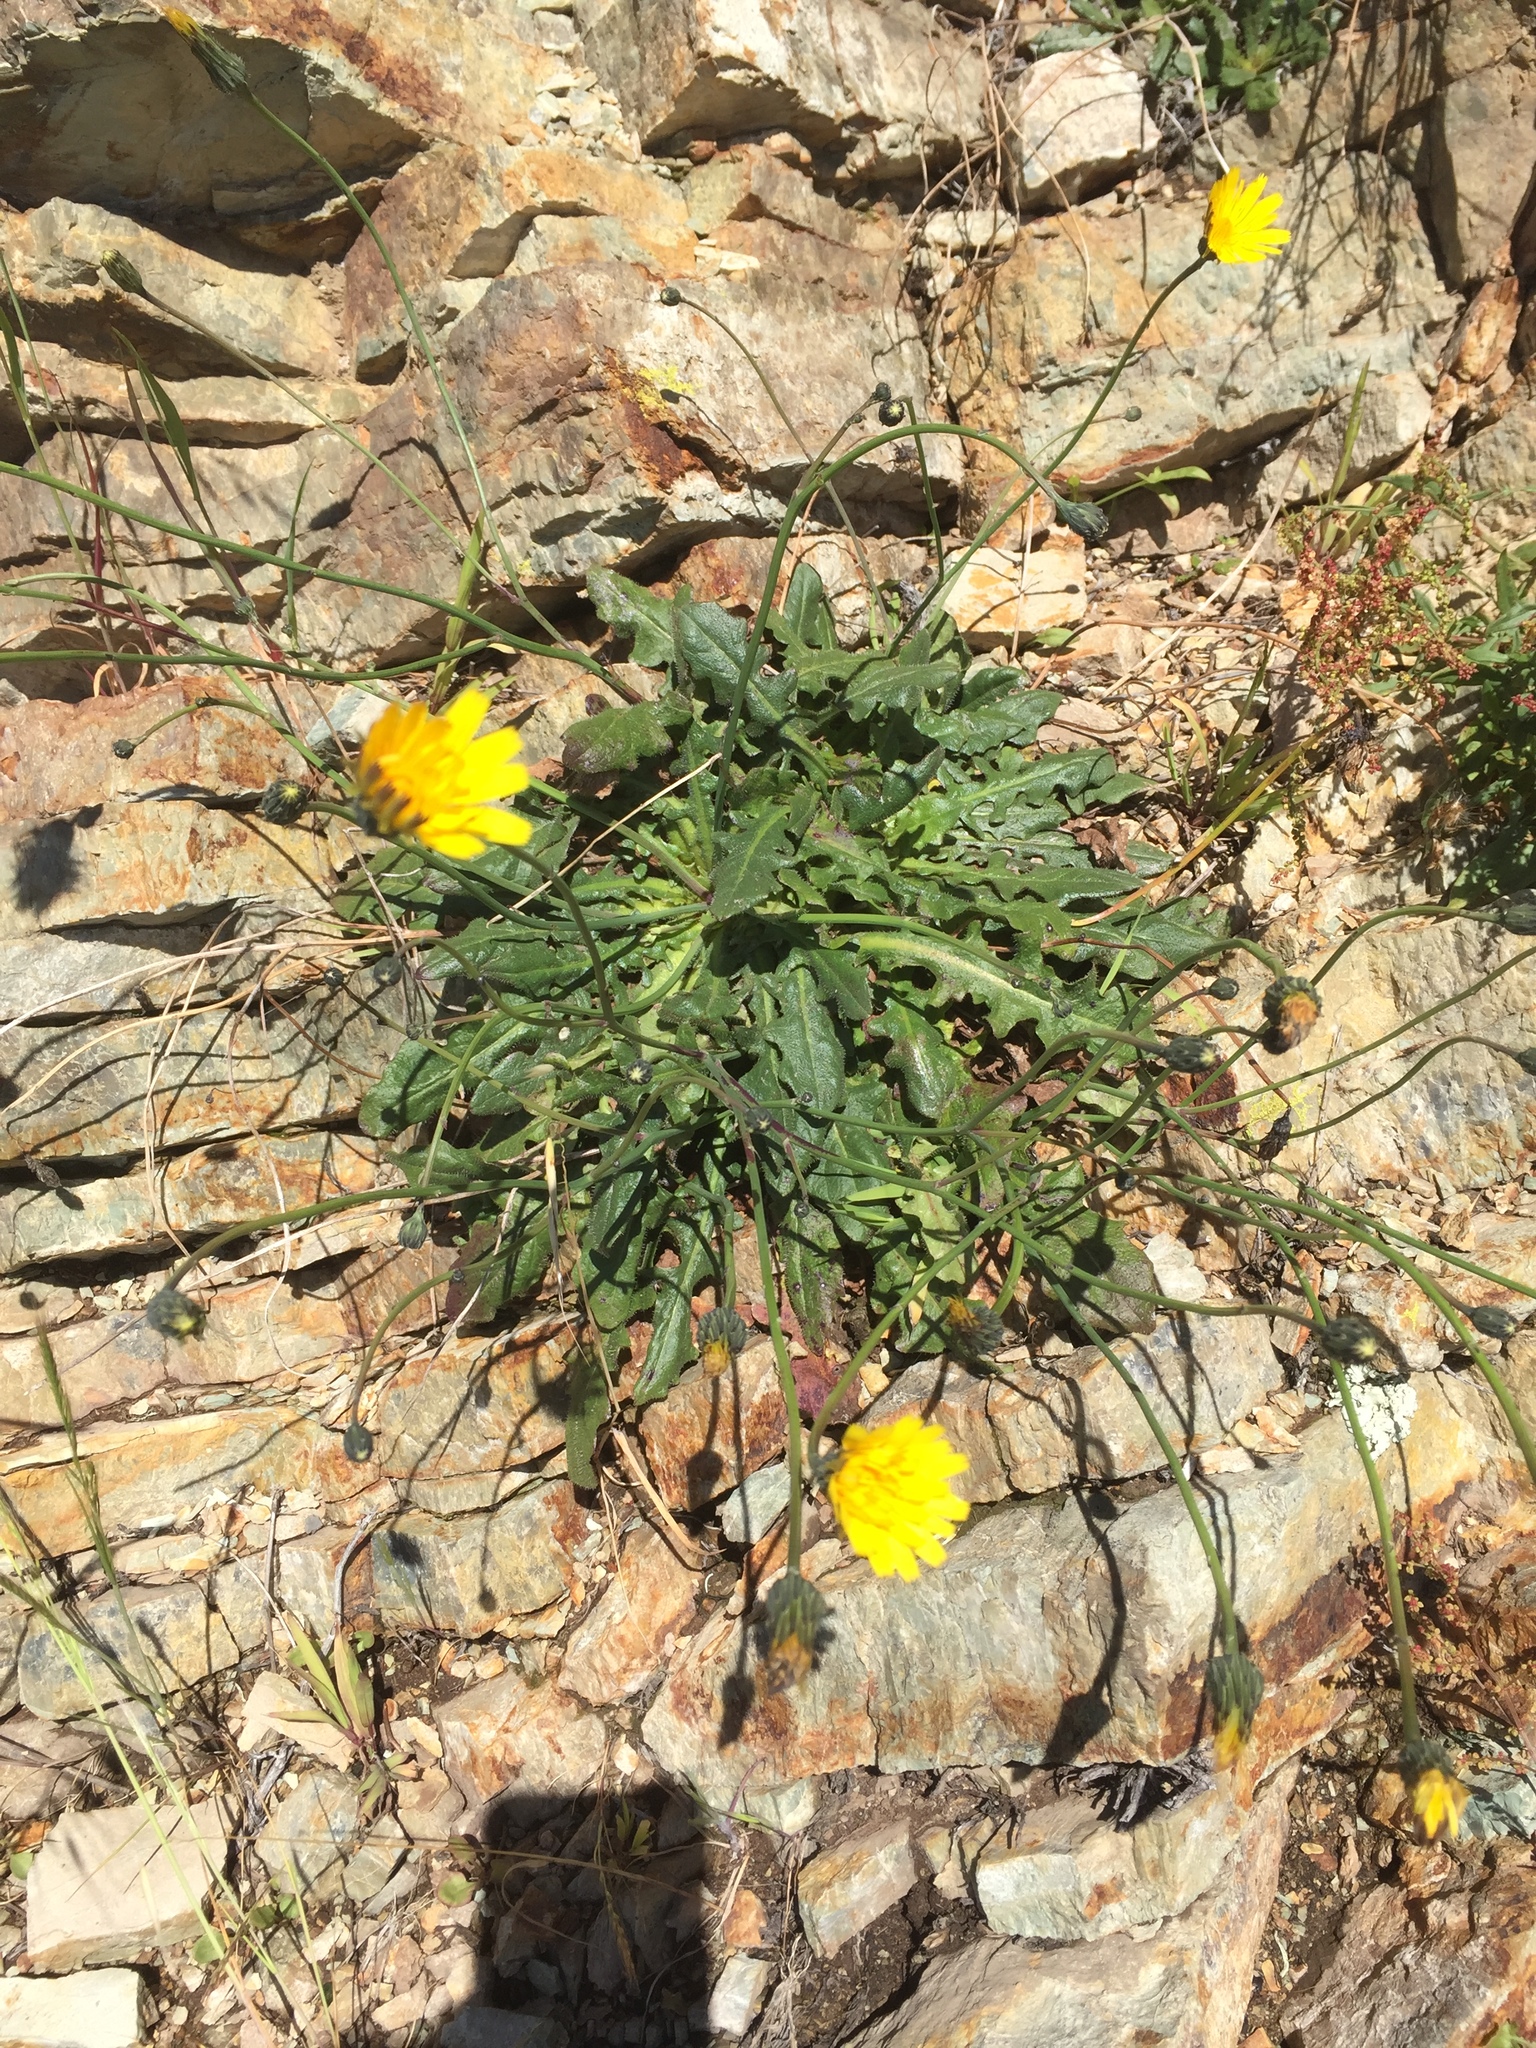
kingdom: Plantae
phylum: Tracheophyta
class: Magnoliopsida
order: Asterales
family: Asteraceae
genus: Hypochaeris
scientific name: Hypochaeris radicata
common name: Flatweed
